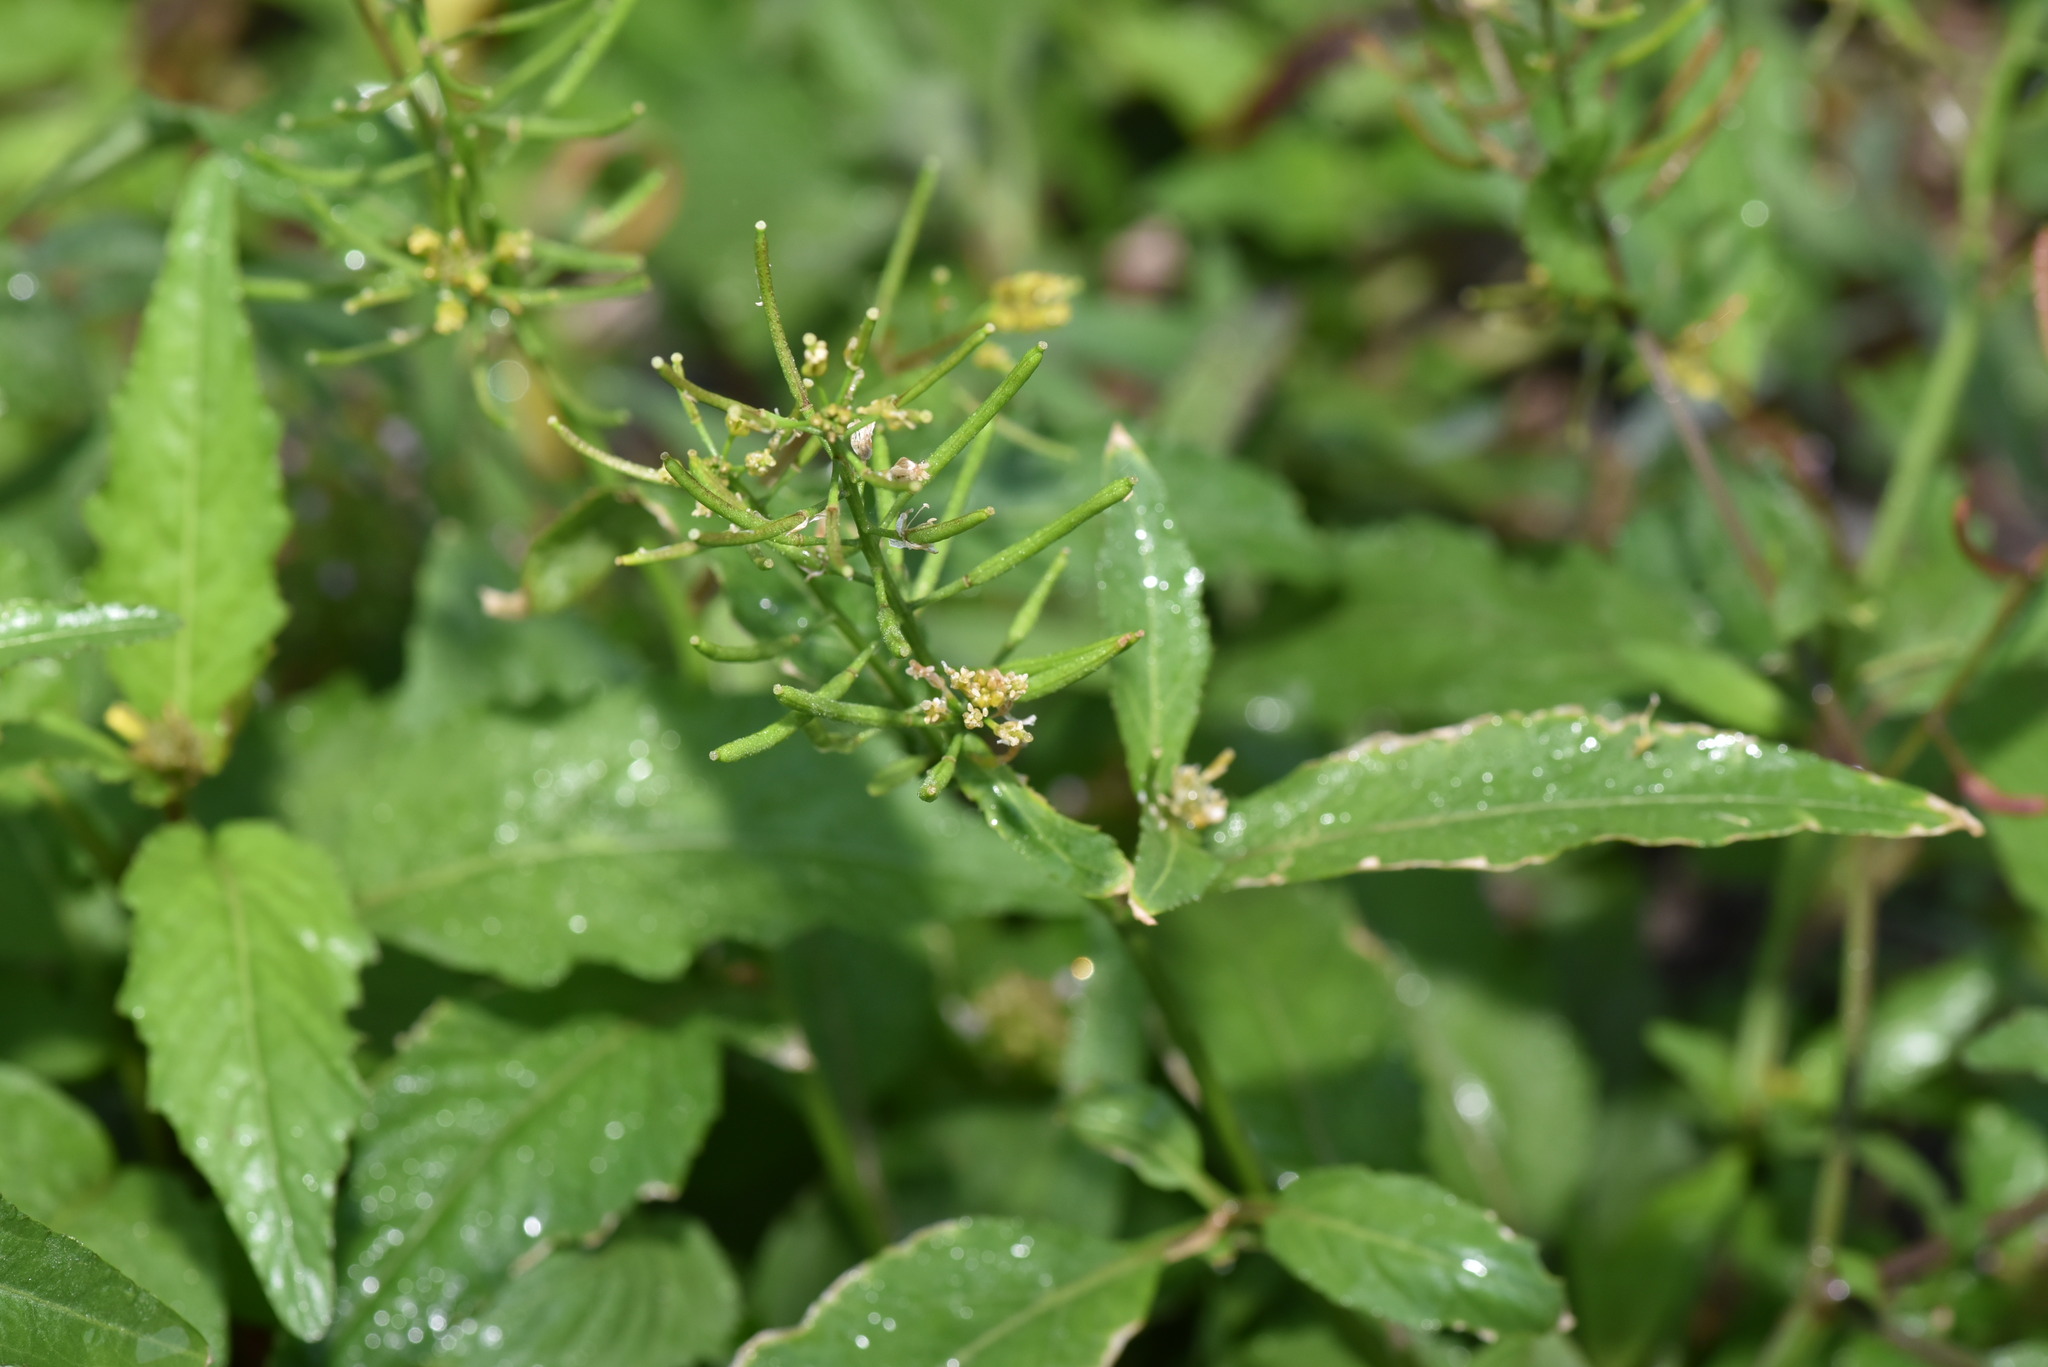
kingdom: Plantae
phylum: Tracheophyta
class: Magnoliopsida
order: Brassicales
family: Brassicaceae
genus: Rorippa
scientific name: Rorippa indica
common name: Variableleaf yellowcress
